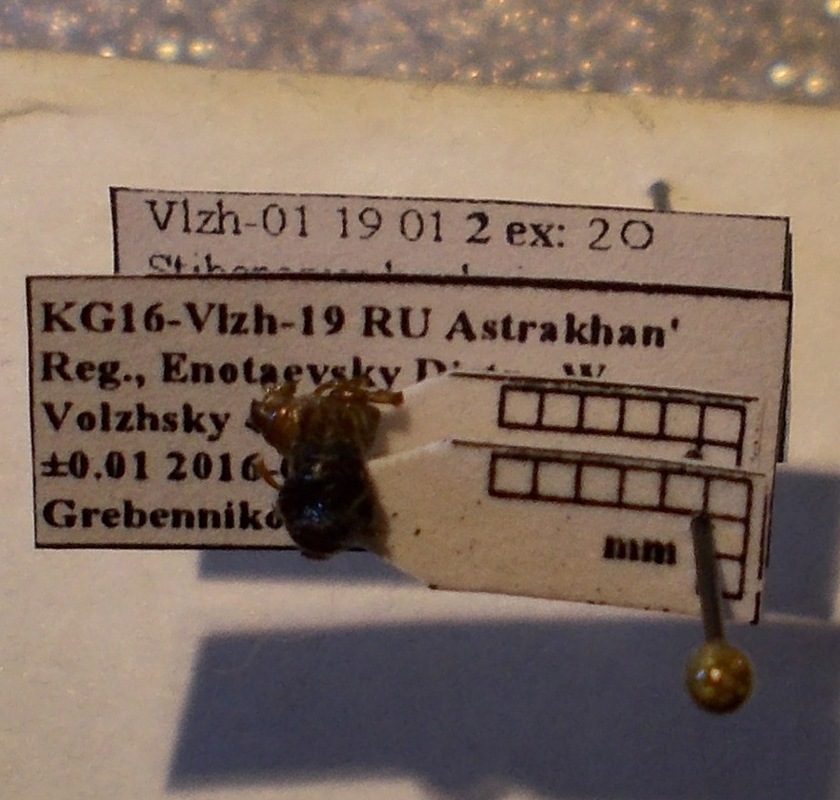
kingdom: Animalia
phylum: Arthropoda
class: Insecta
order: Hemiptera
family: Cydnidae
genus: Stibaropus
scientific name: Stibaropus henkei
